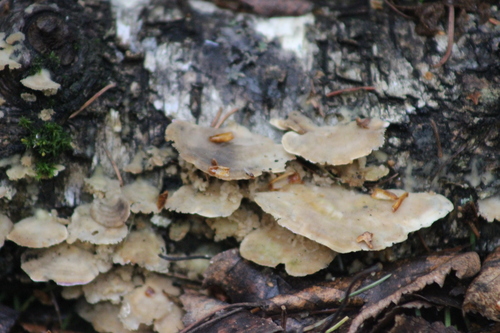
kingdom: Fungi
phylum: Basidiomycota
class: Agaricomycetes
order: Hymenochaetales
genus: Trichaptum
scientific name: Trichaptum biforme
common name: Violet-toothed polypore
